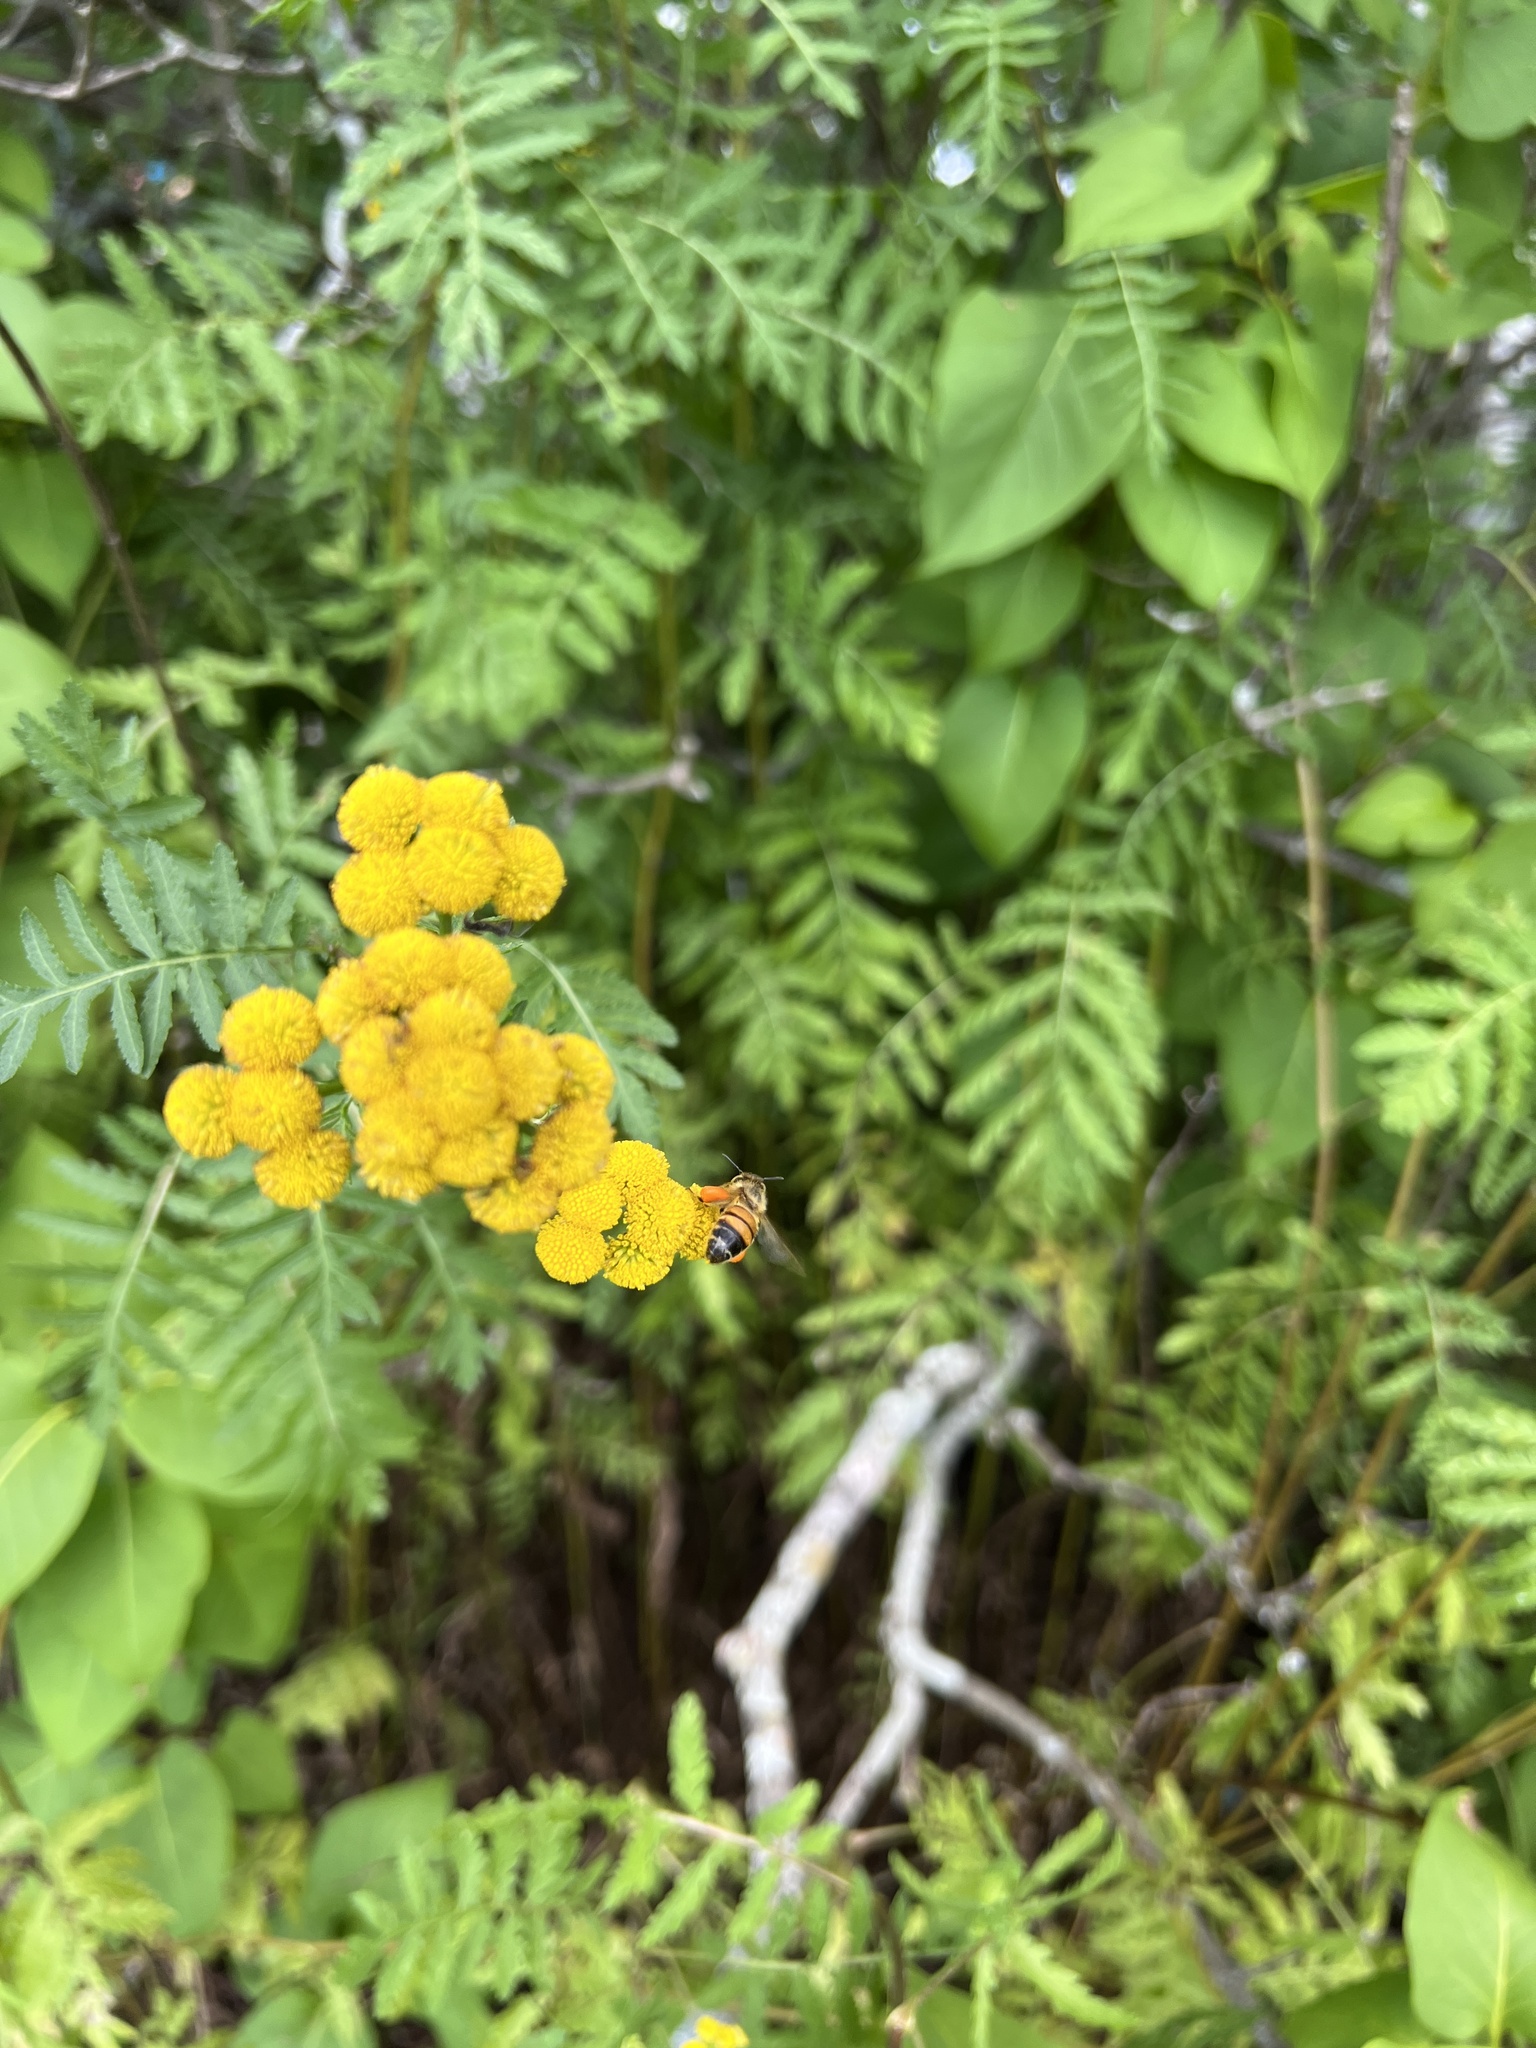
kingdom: Plantae
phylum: Tracheophyta
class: Magnoliopsida
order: Asterales
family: Asteraceae
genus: Tanacetum
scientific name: Tanacetum vulgare
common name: Common tansy
